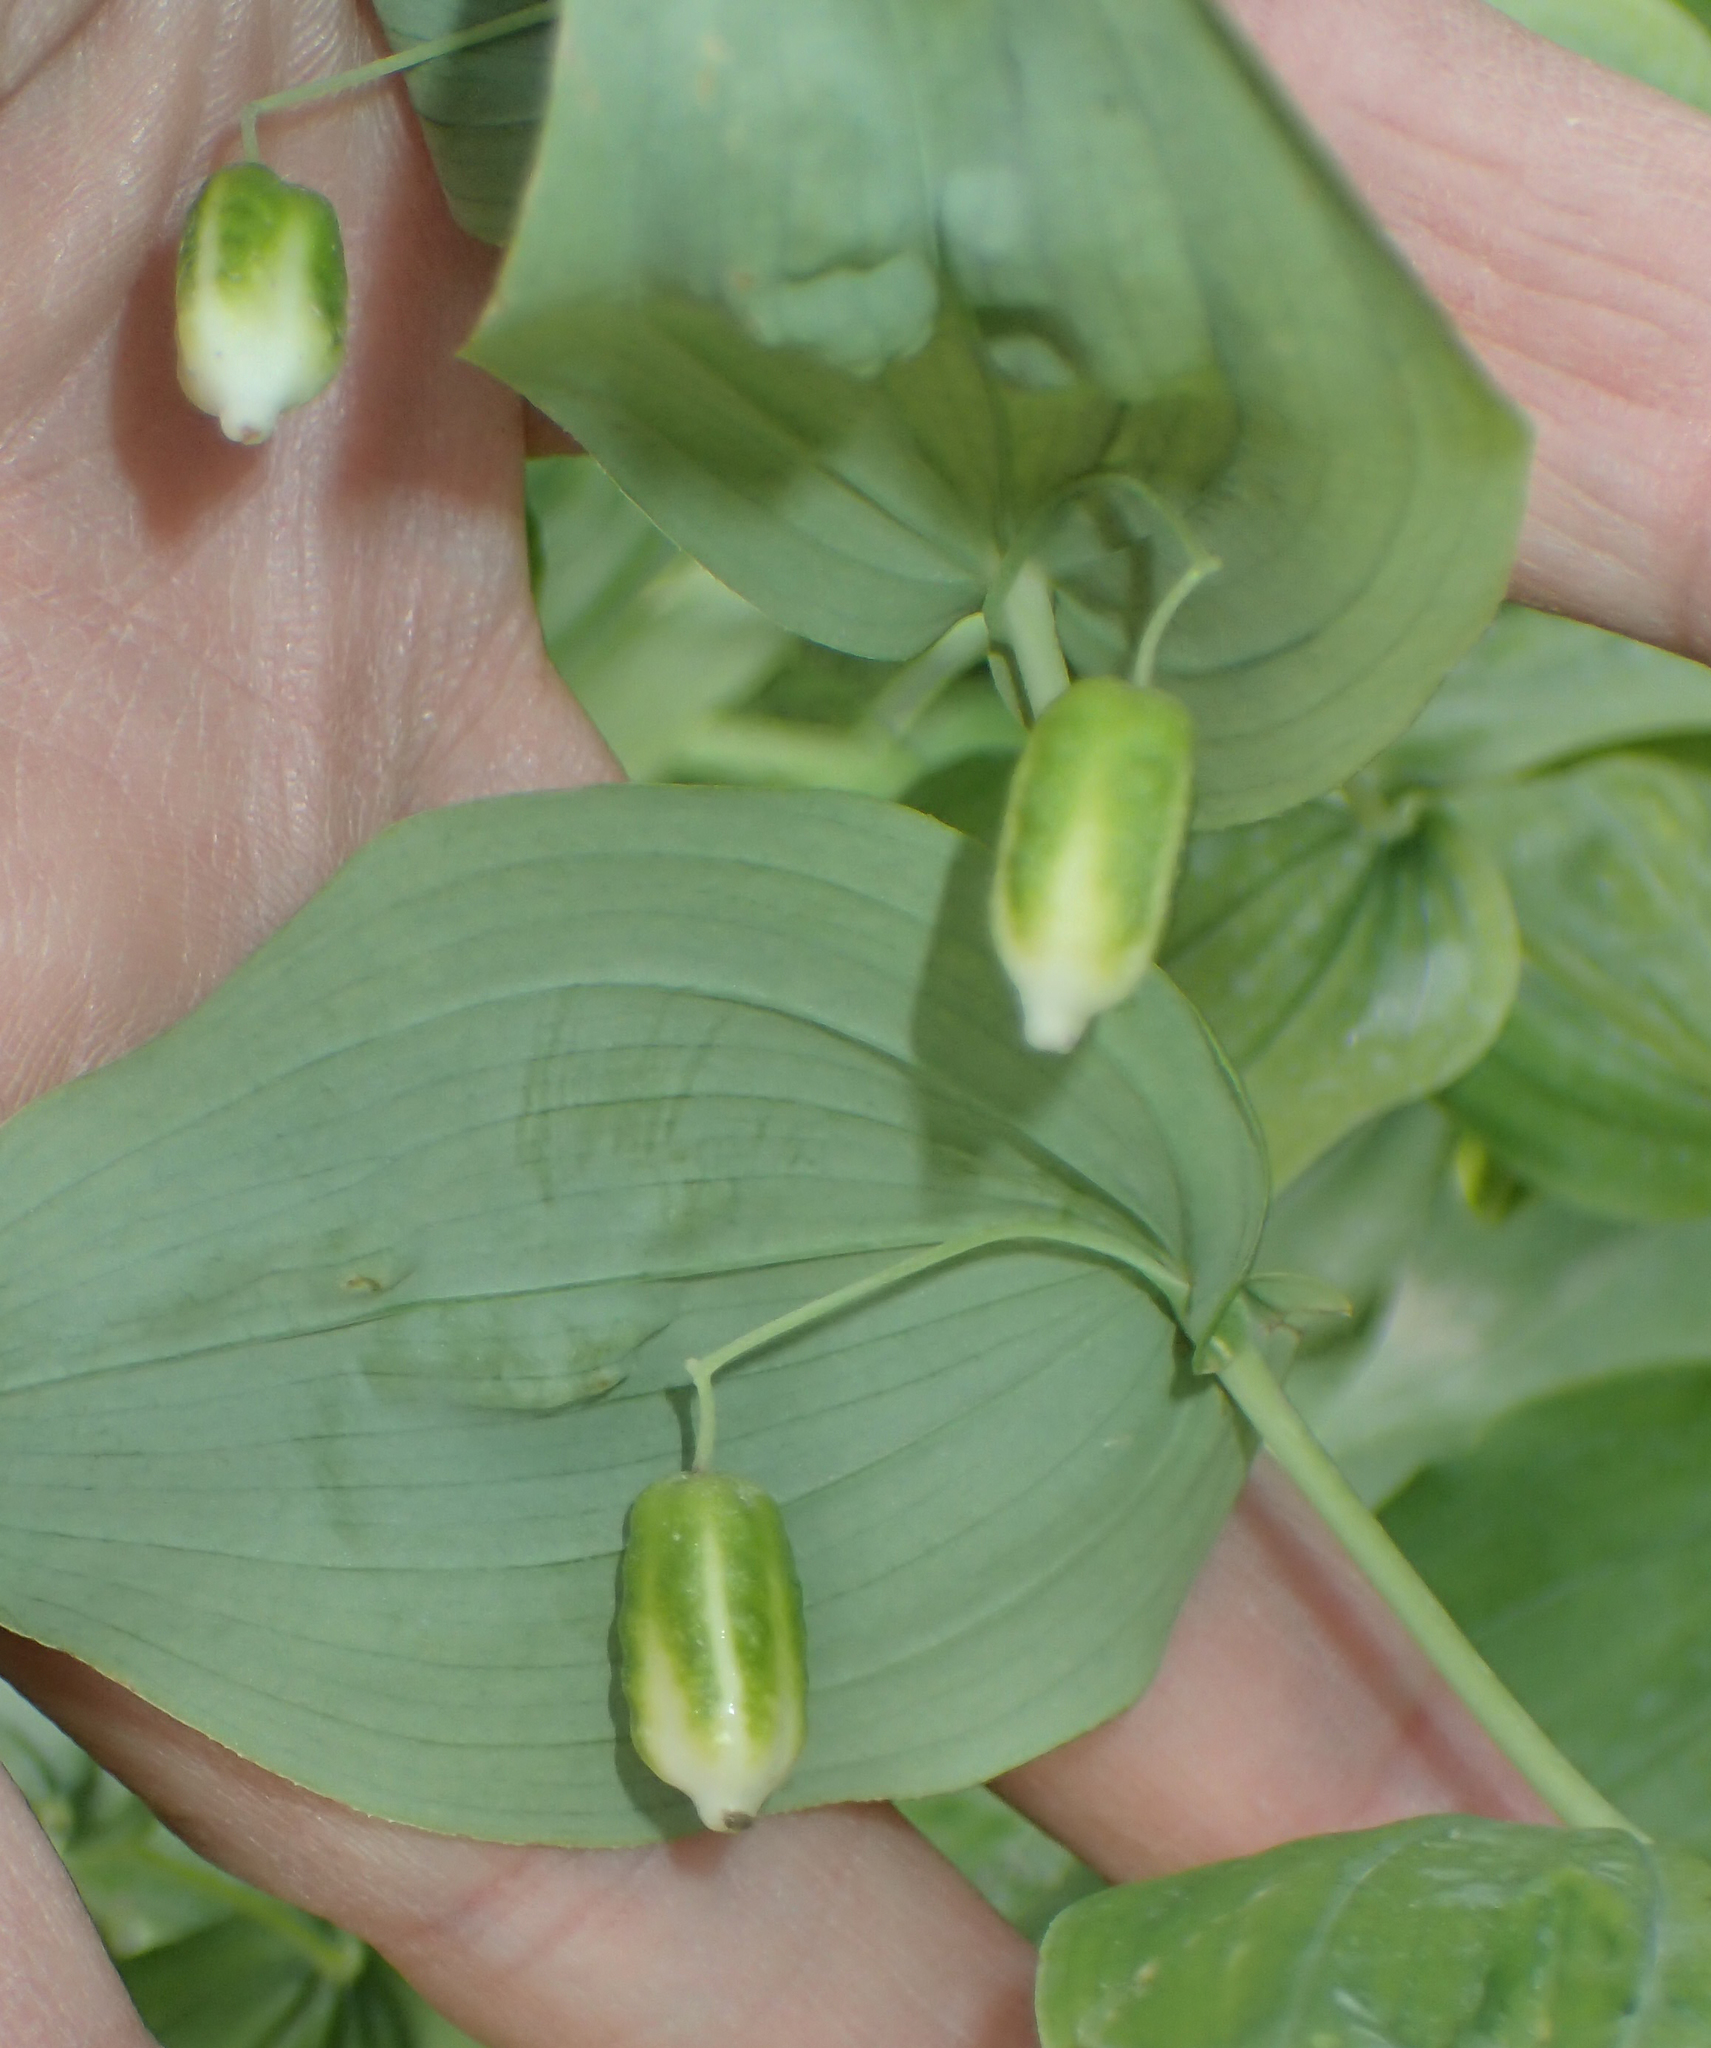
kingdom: Plantae
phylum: Tracheophyta
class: Liliopsida
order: Liliales
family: Liliaceae
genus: Streptopus
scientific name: Streptopus amplexifolius
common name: Clasp twisted stalk
